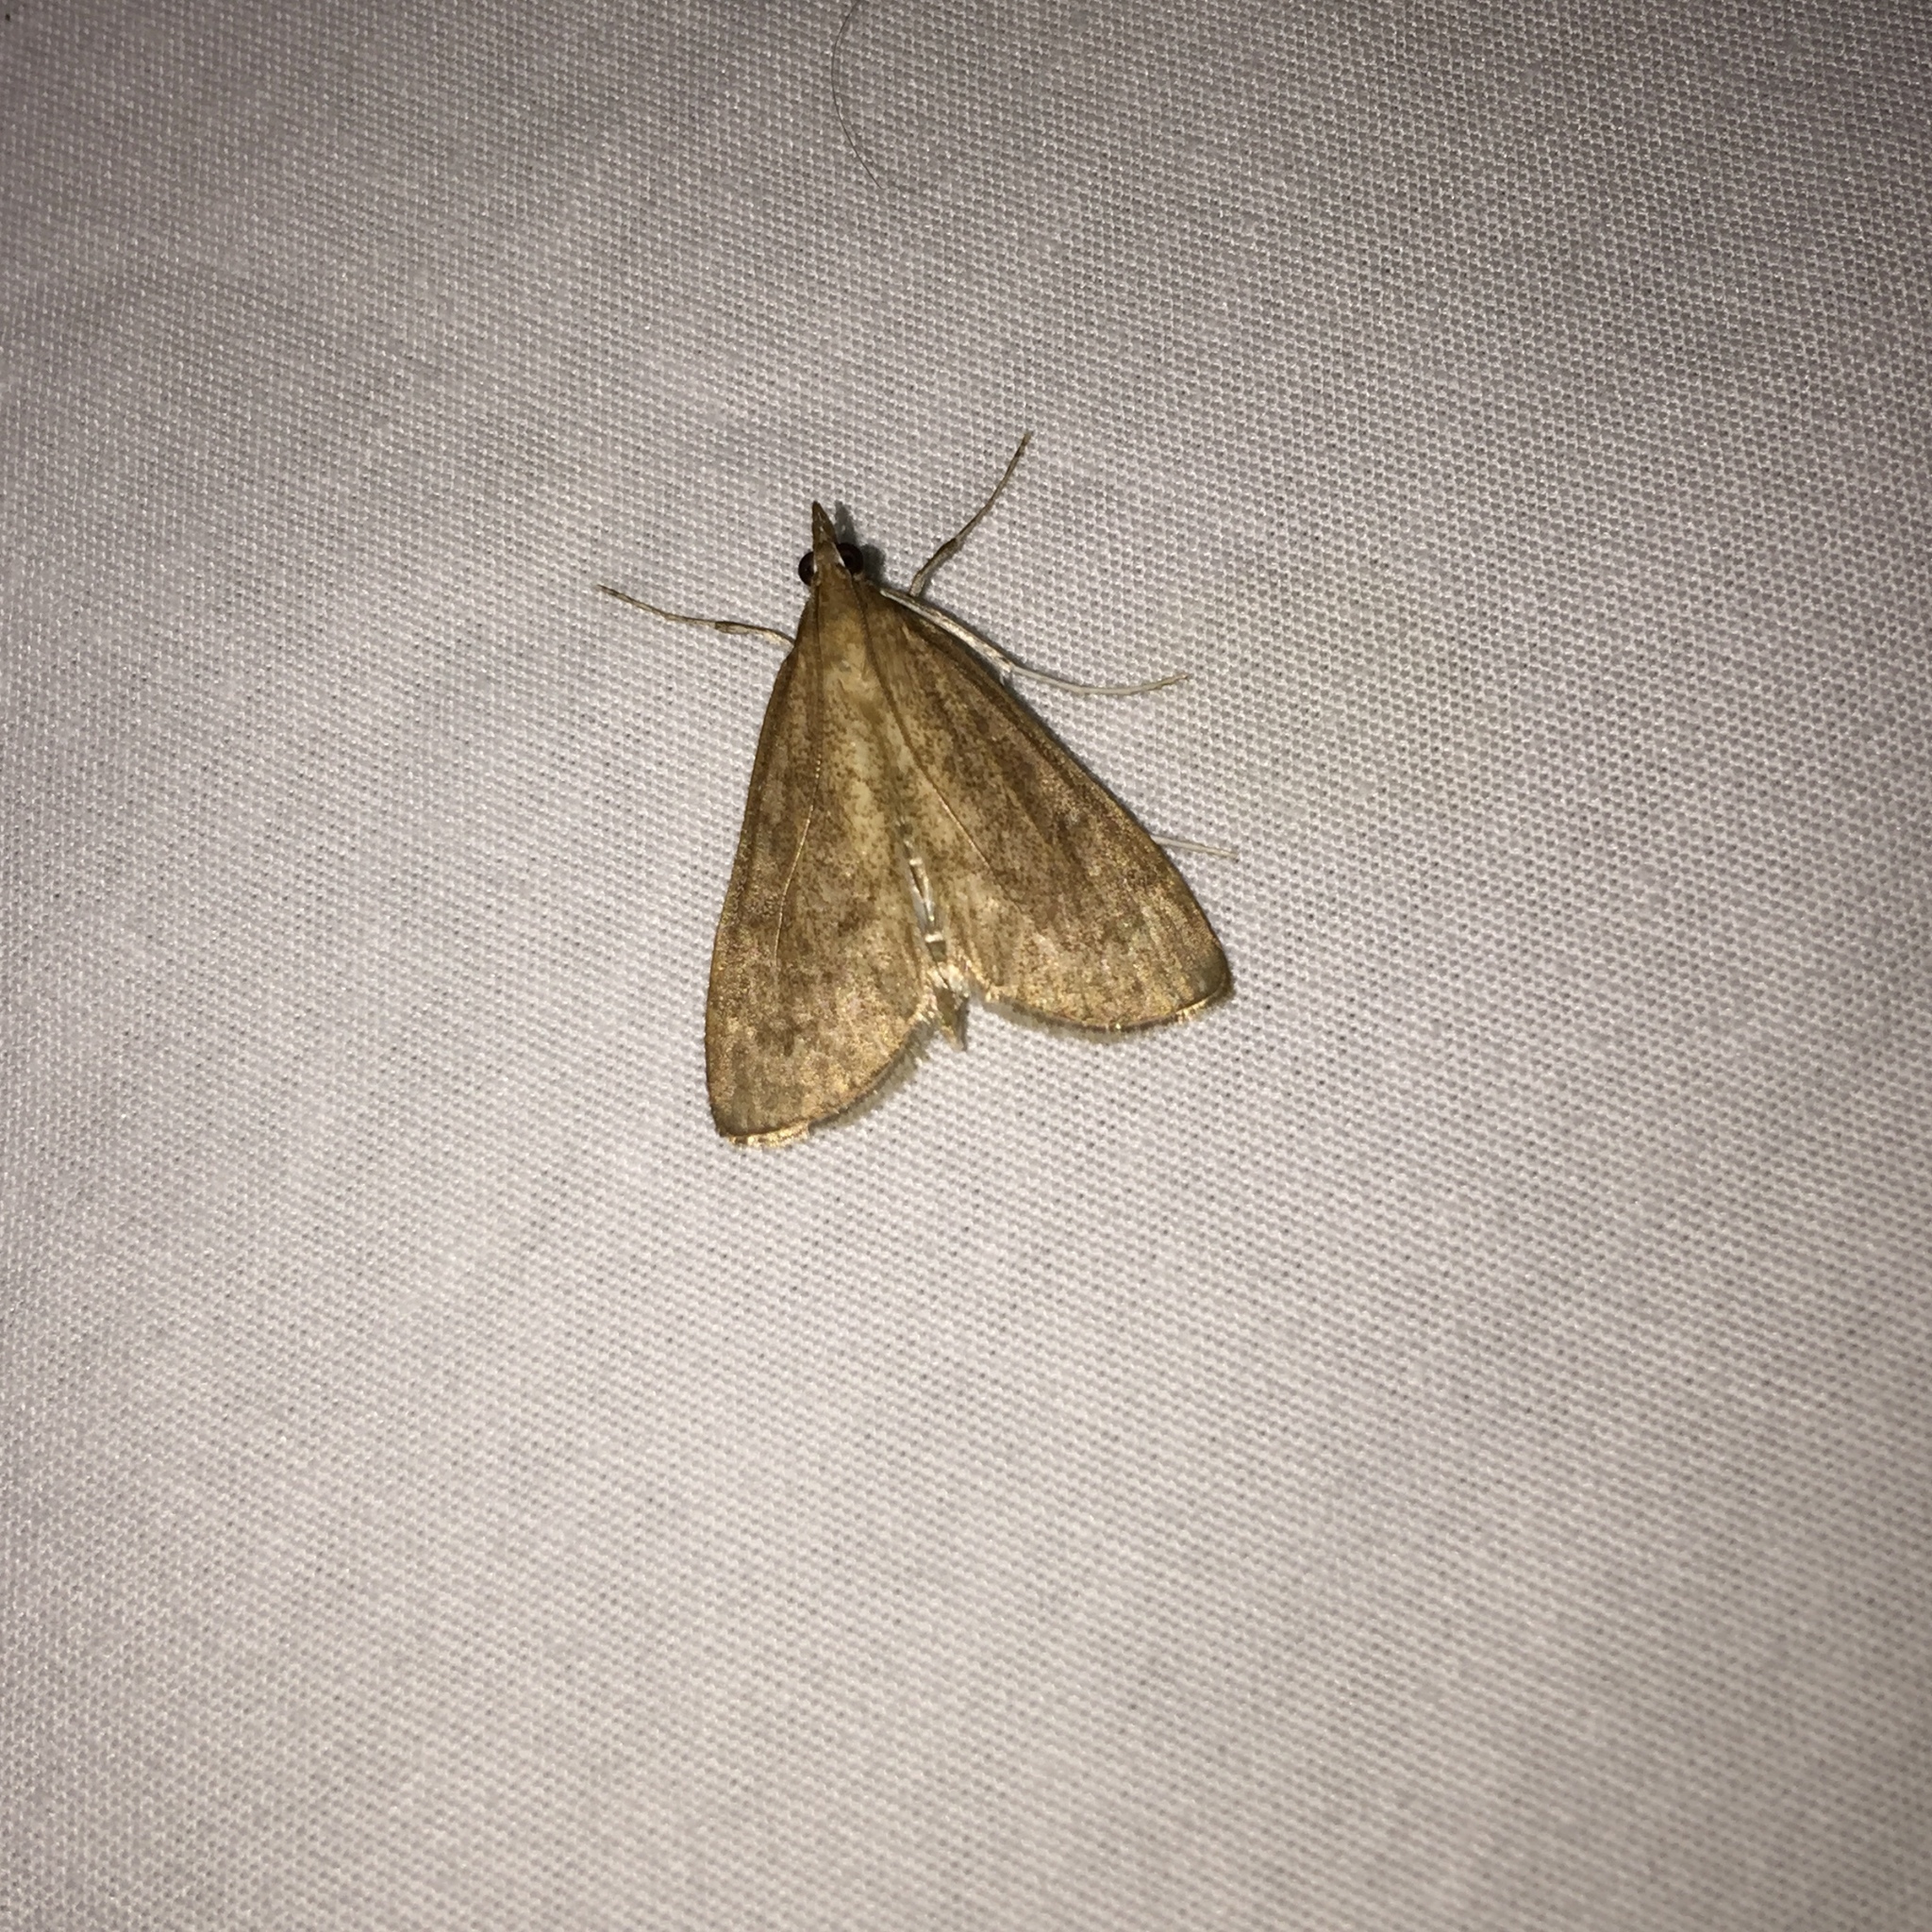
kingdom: Animalia
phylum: Arthropoda
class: Insecta
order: Lepidoptera
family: Crambidae
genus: Saucrobotys
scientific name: Saucrobotys futilalis
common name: Dogbane saucrobotys moth
